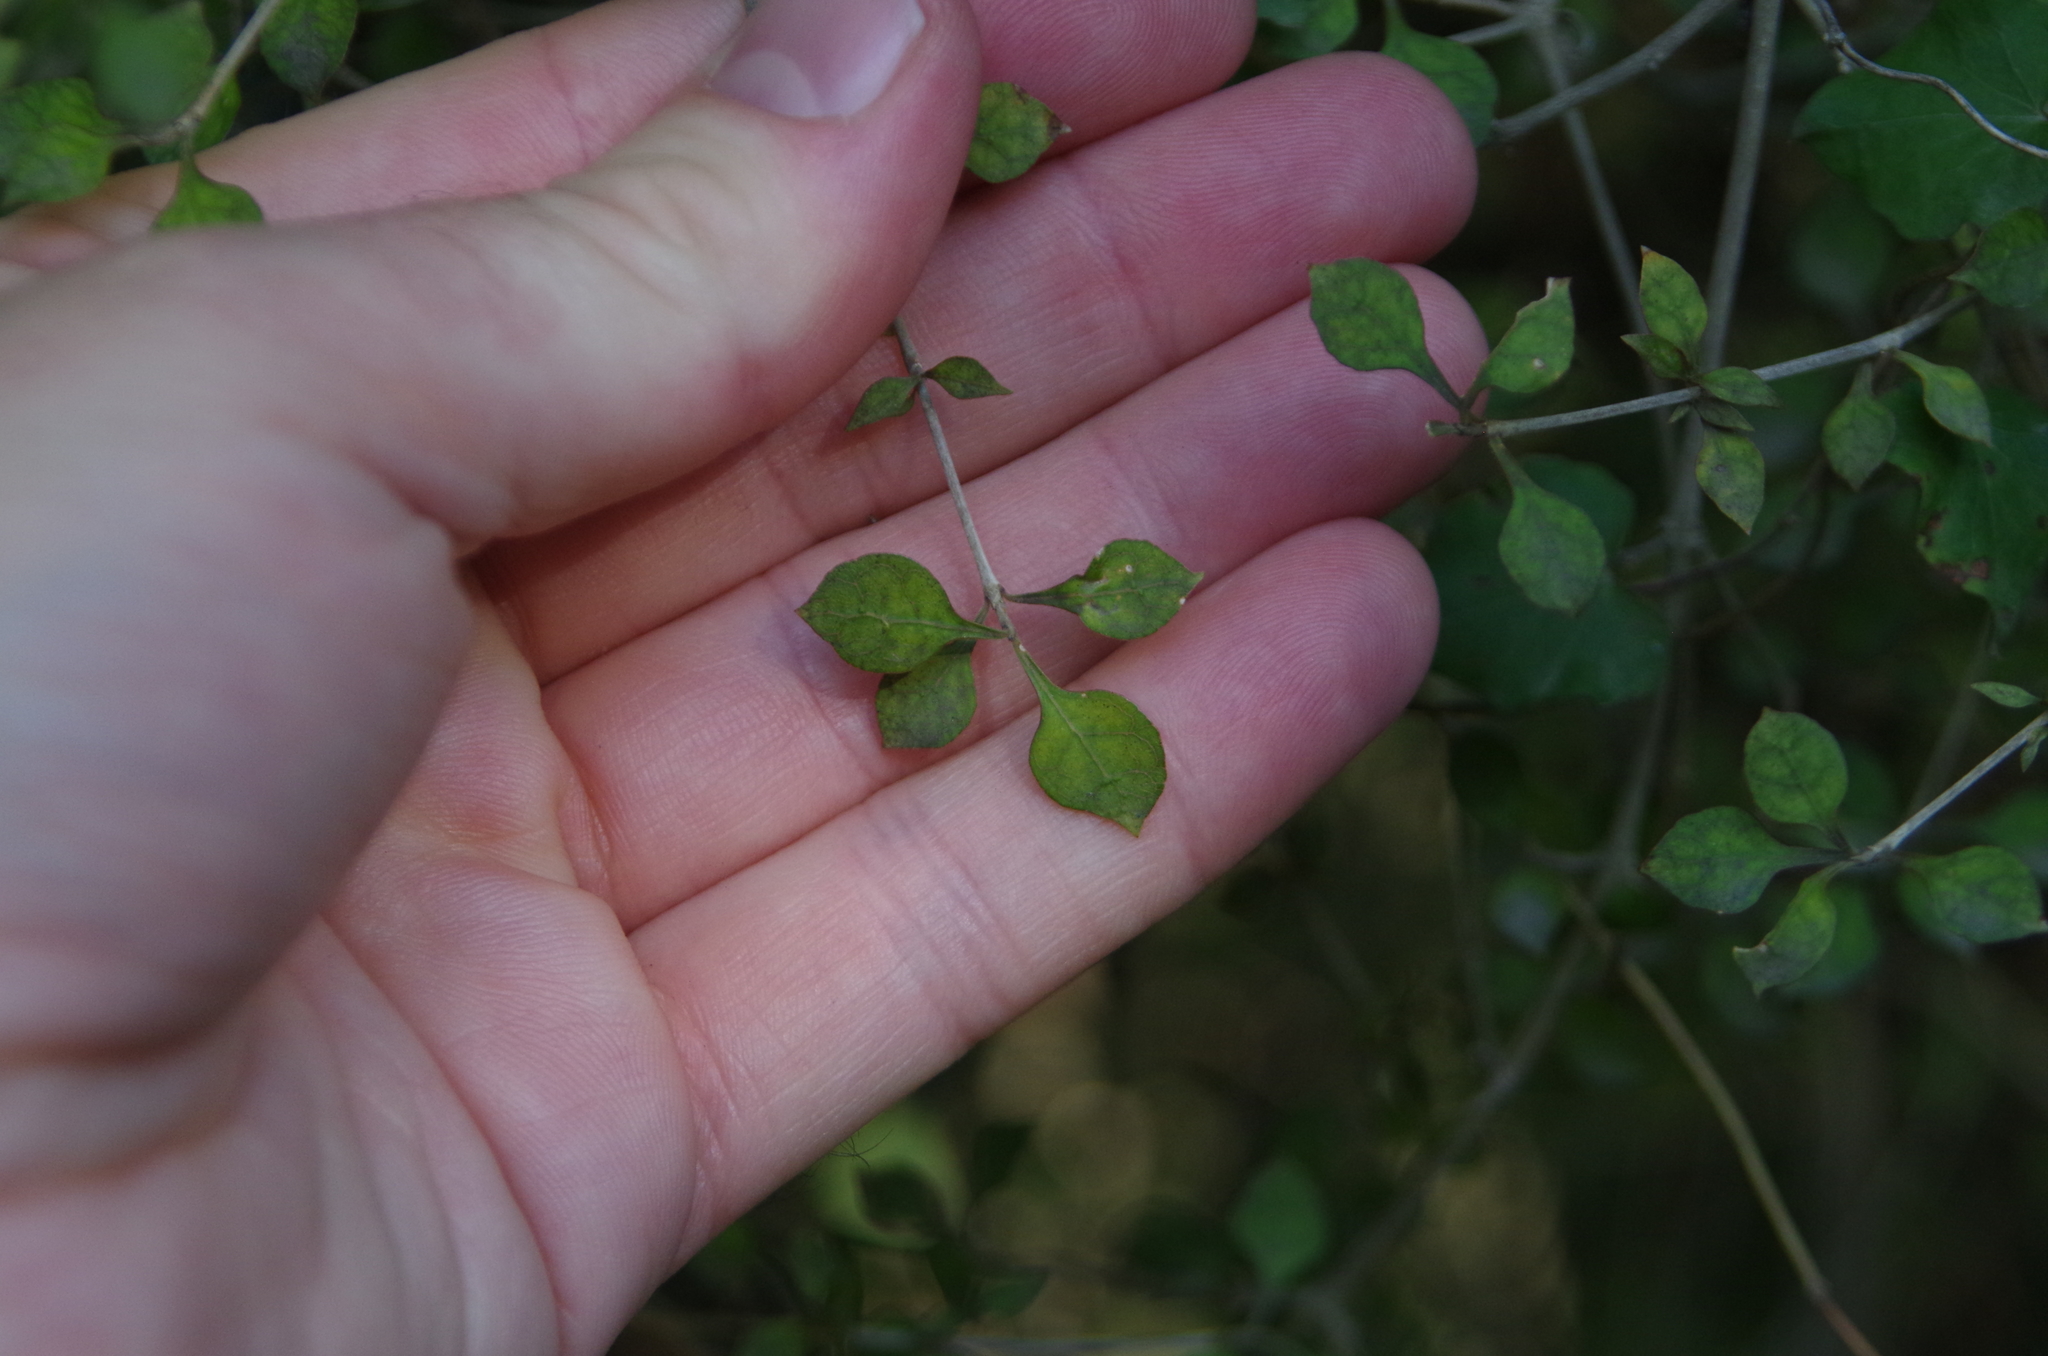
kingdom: Plantae
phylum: Tracheophyta
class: Magnoliopsida
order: Gentianales
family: Rubiaceae
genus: Coprosma
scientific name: Coprosma areolata
